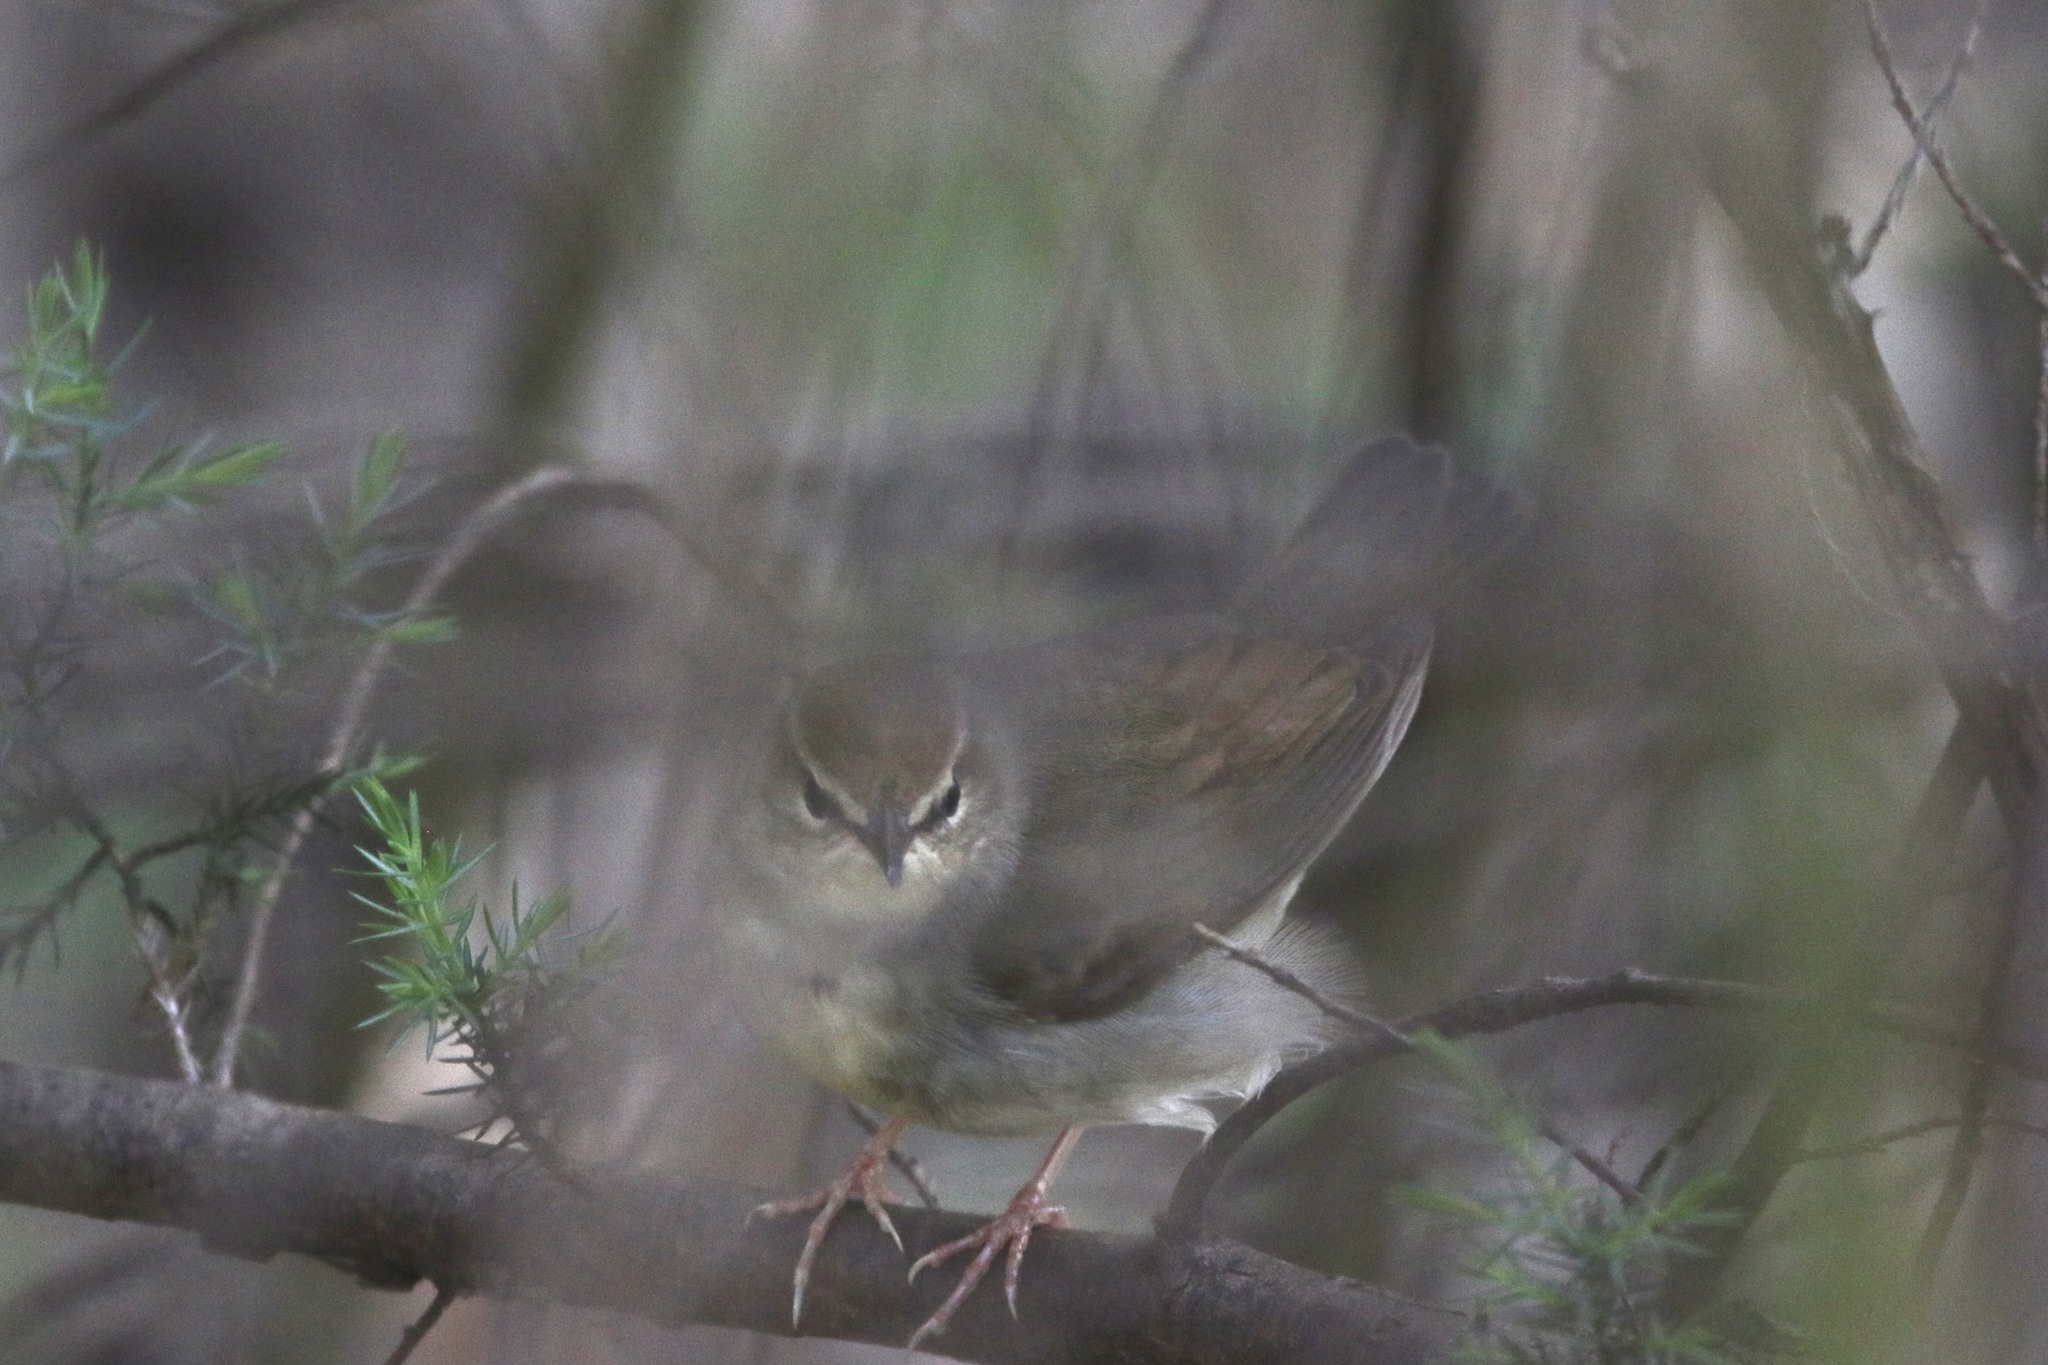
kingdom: Animalia
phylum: Chordata
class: Aves
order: Passeriformes
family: Parulidae
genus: Limnothlypis
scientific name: Limnothlypis swainsonii
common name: Swainson's warbler
